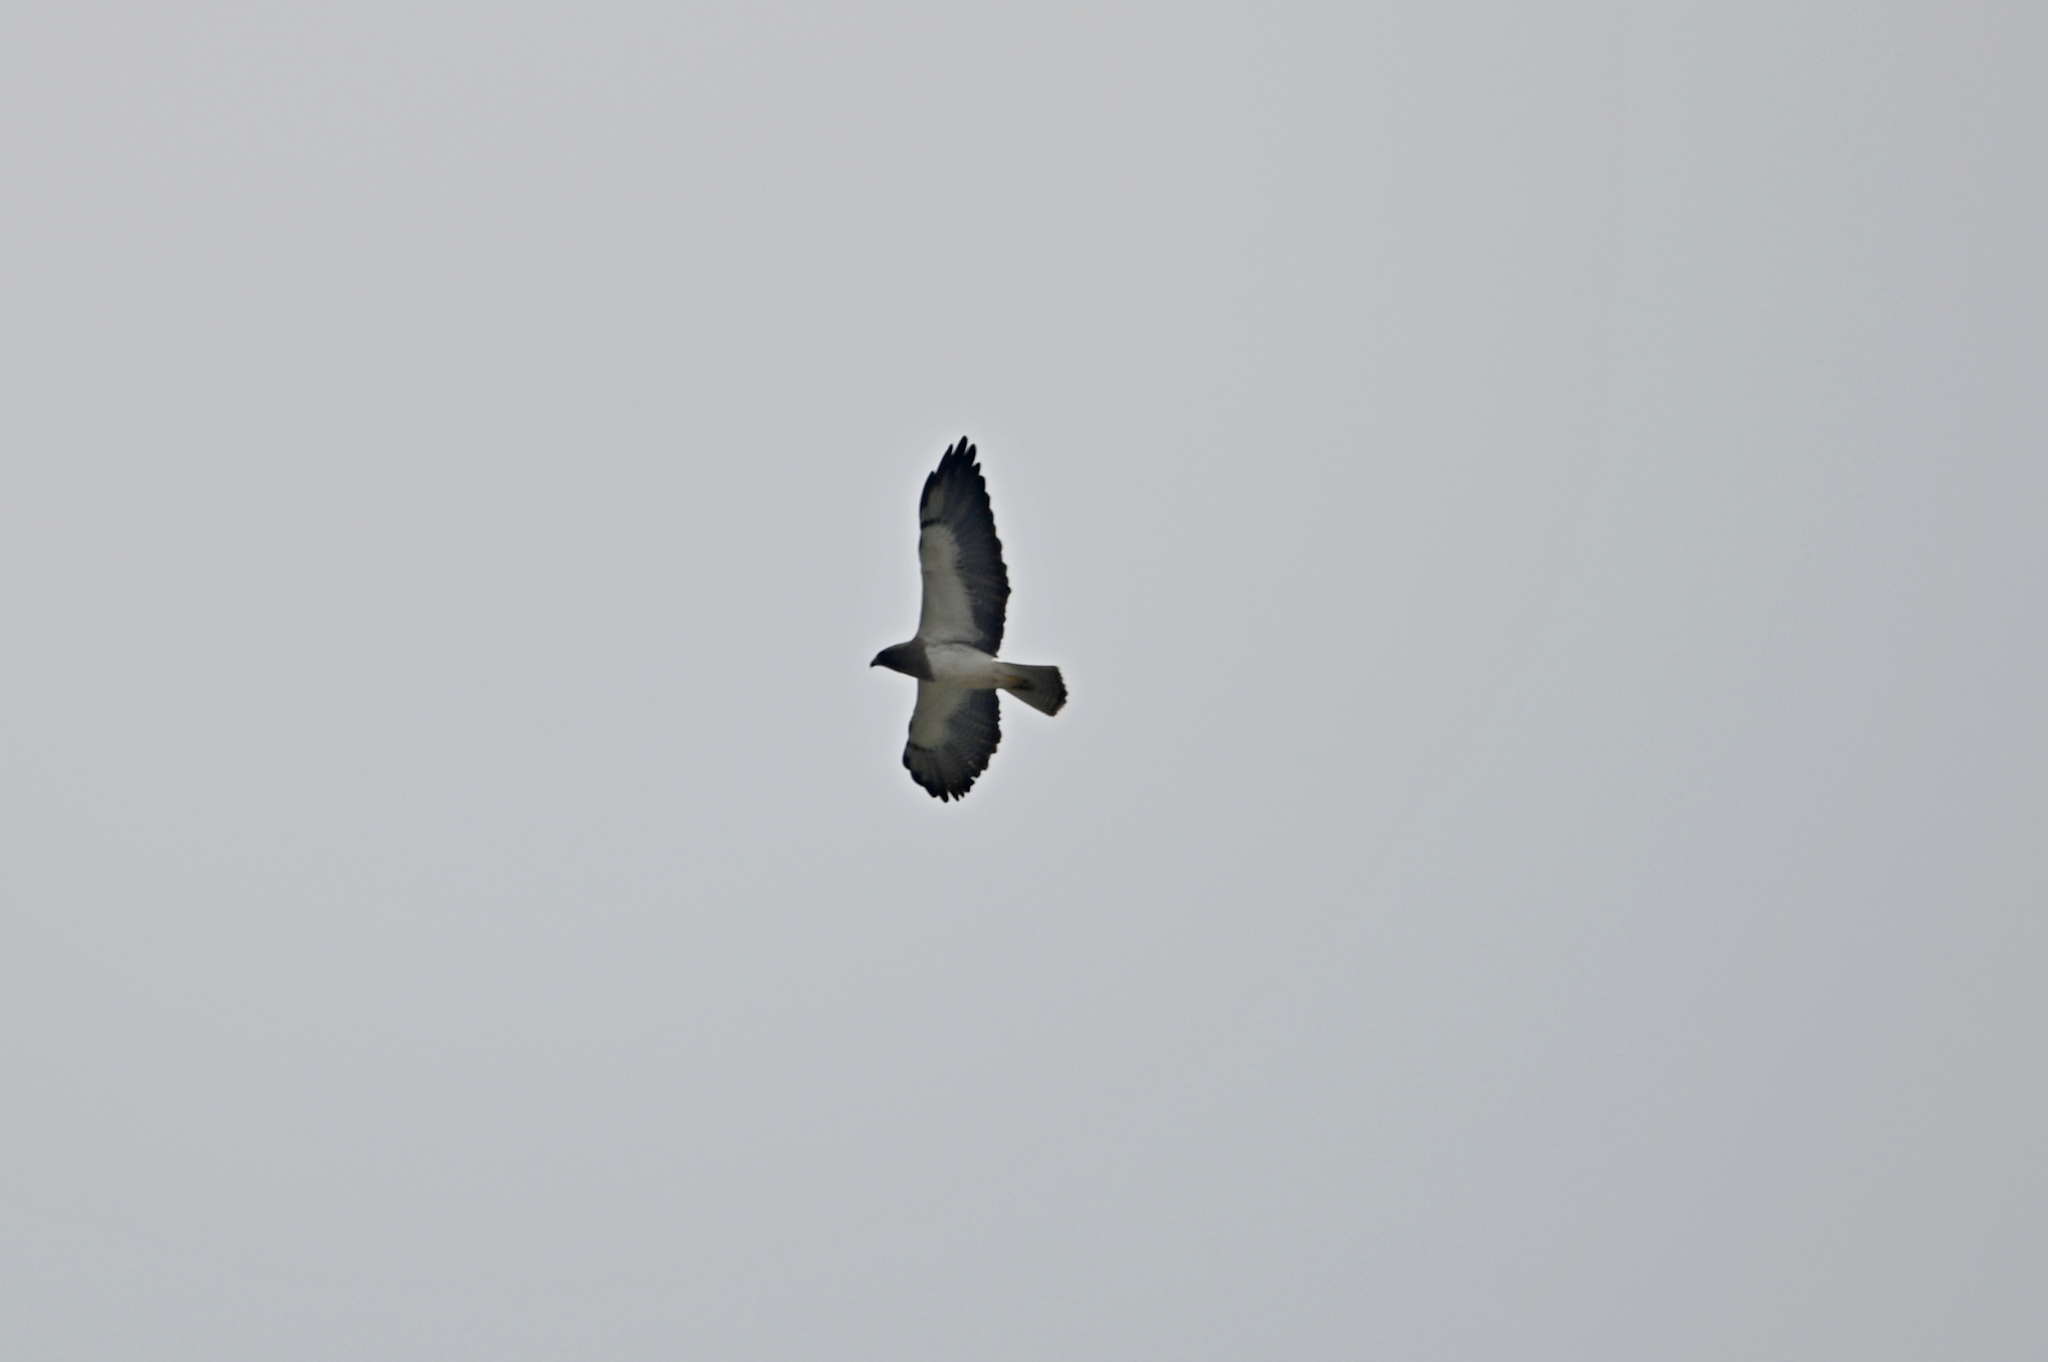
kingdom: Animalia
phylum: Chordata
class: Aves
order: Accipitriformes
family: Accipitridae
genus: Buteo
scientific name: Buteo swainsoni
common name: Swainson's hawk
